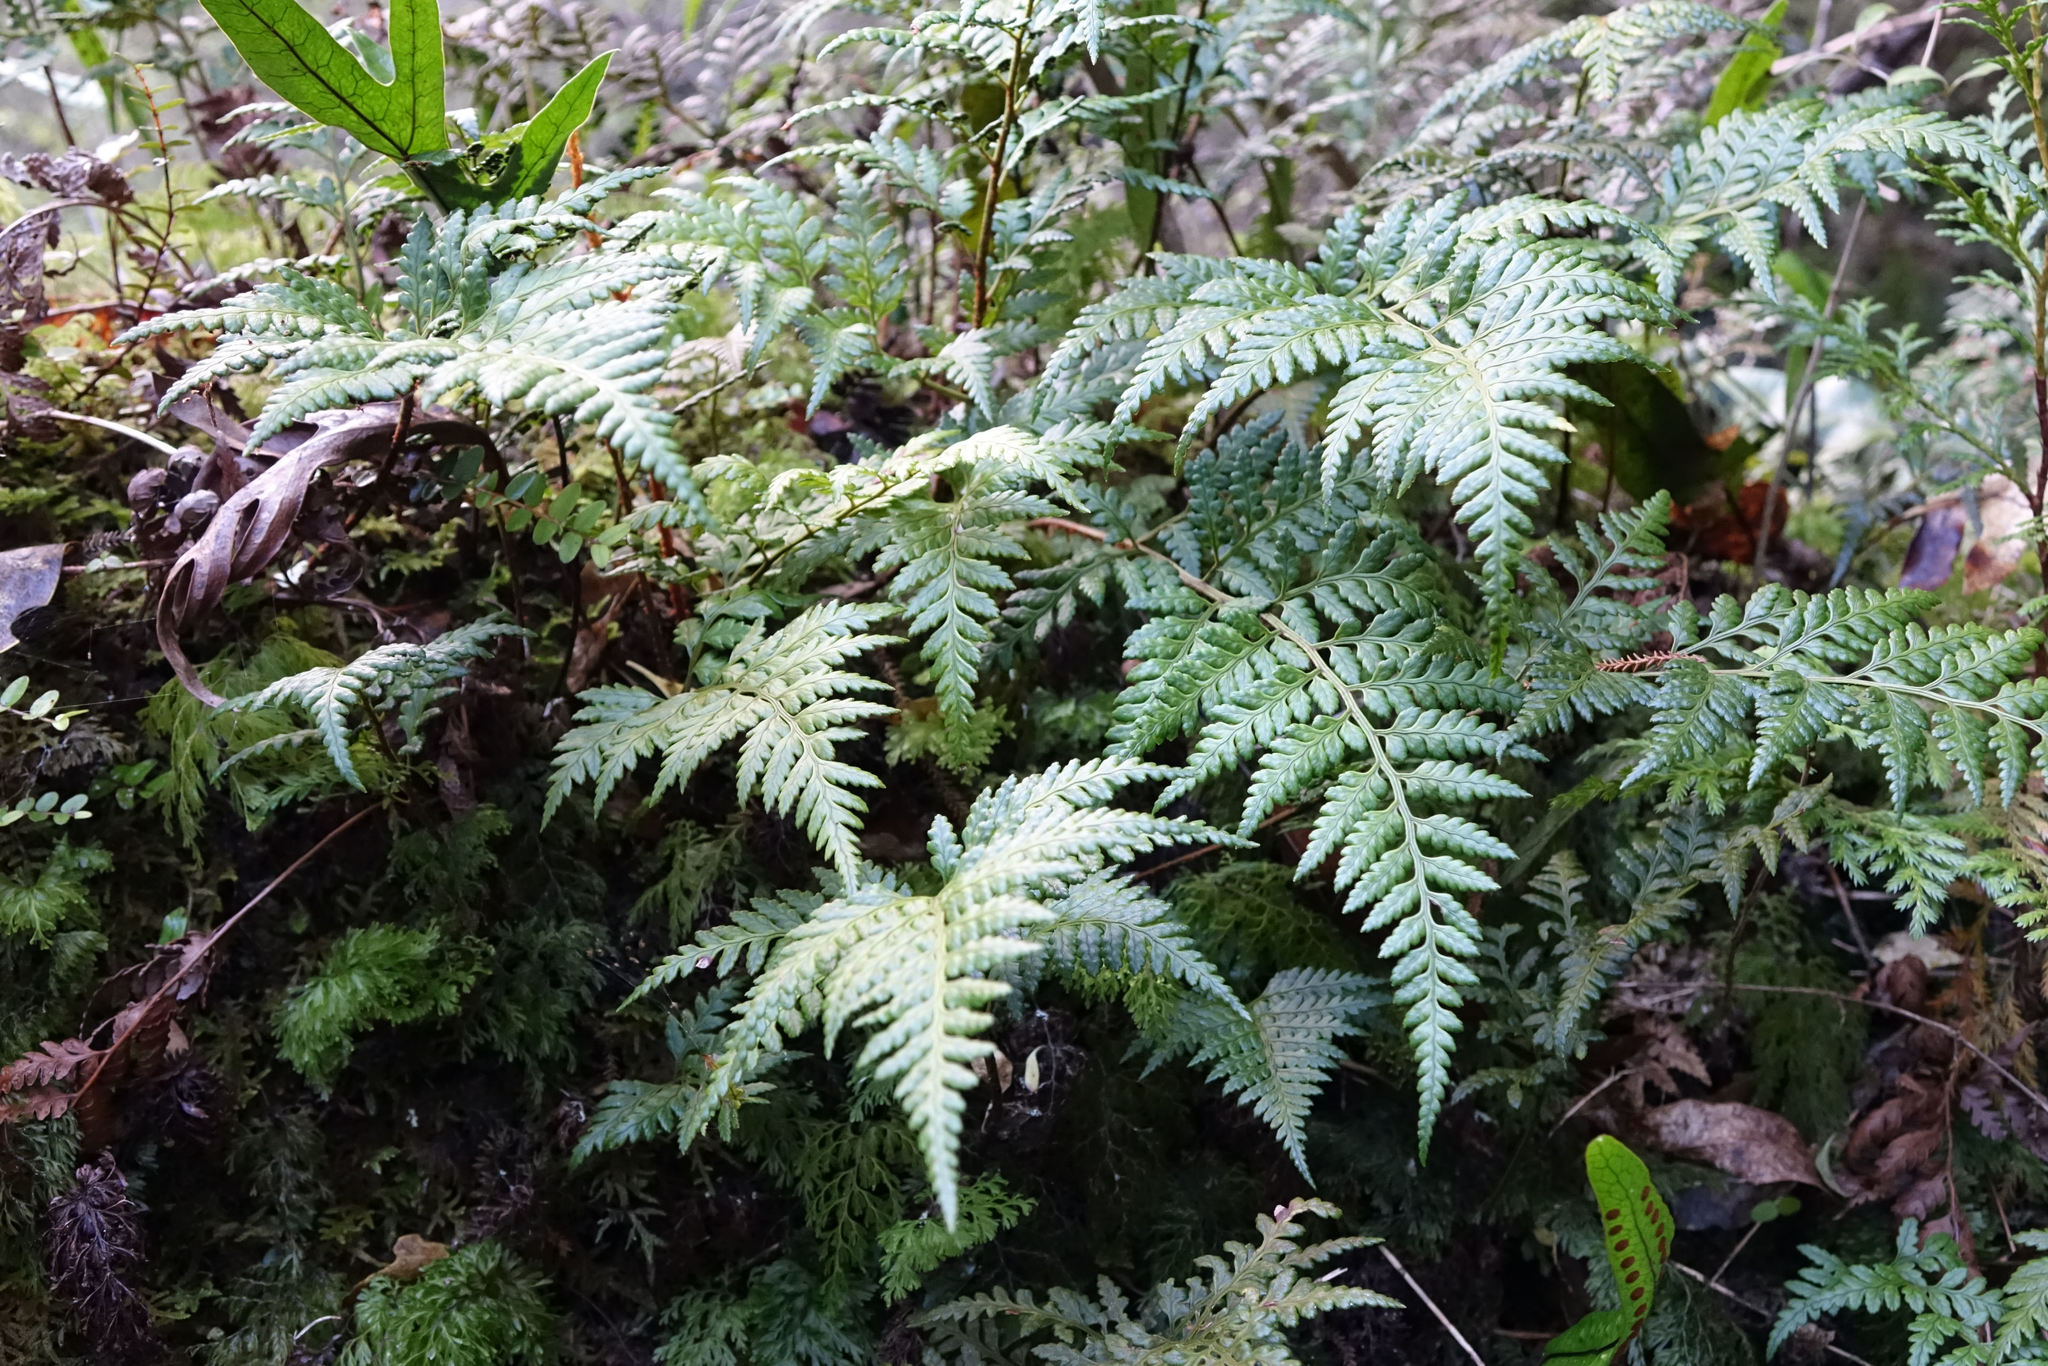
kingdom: Plantae
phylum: Tracheophyta
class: Polypodiopsida
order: Polypodiales
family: Dryopteridaceae
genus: Rumohra
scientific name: Rumohra adiantiformis
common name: Leather fern
